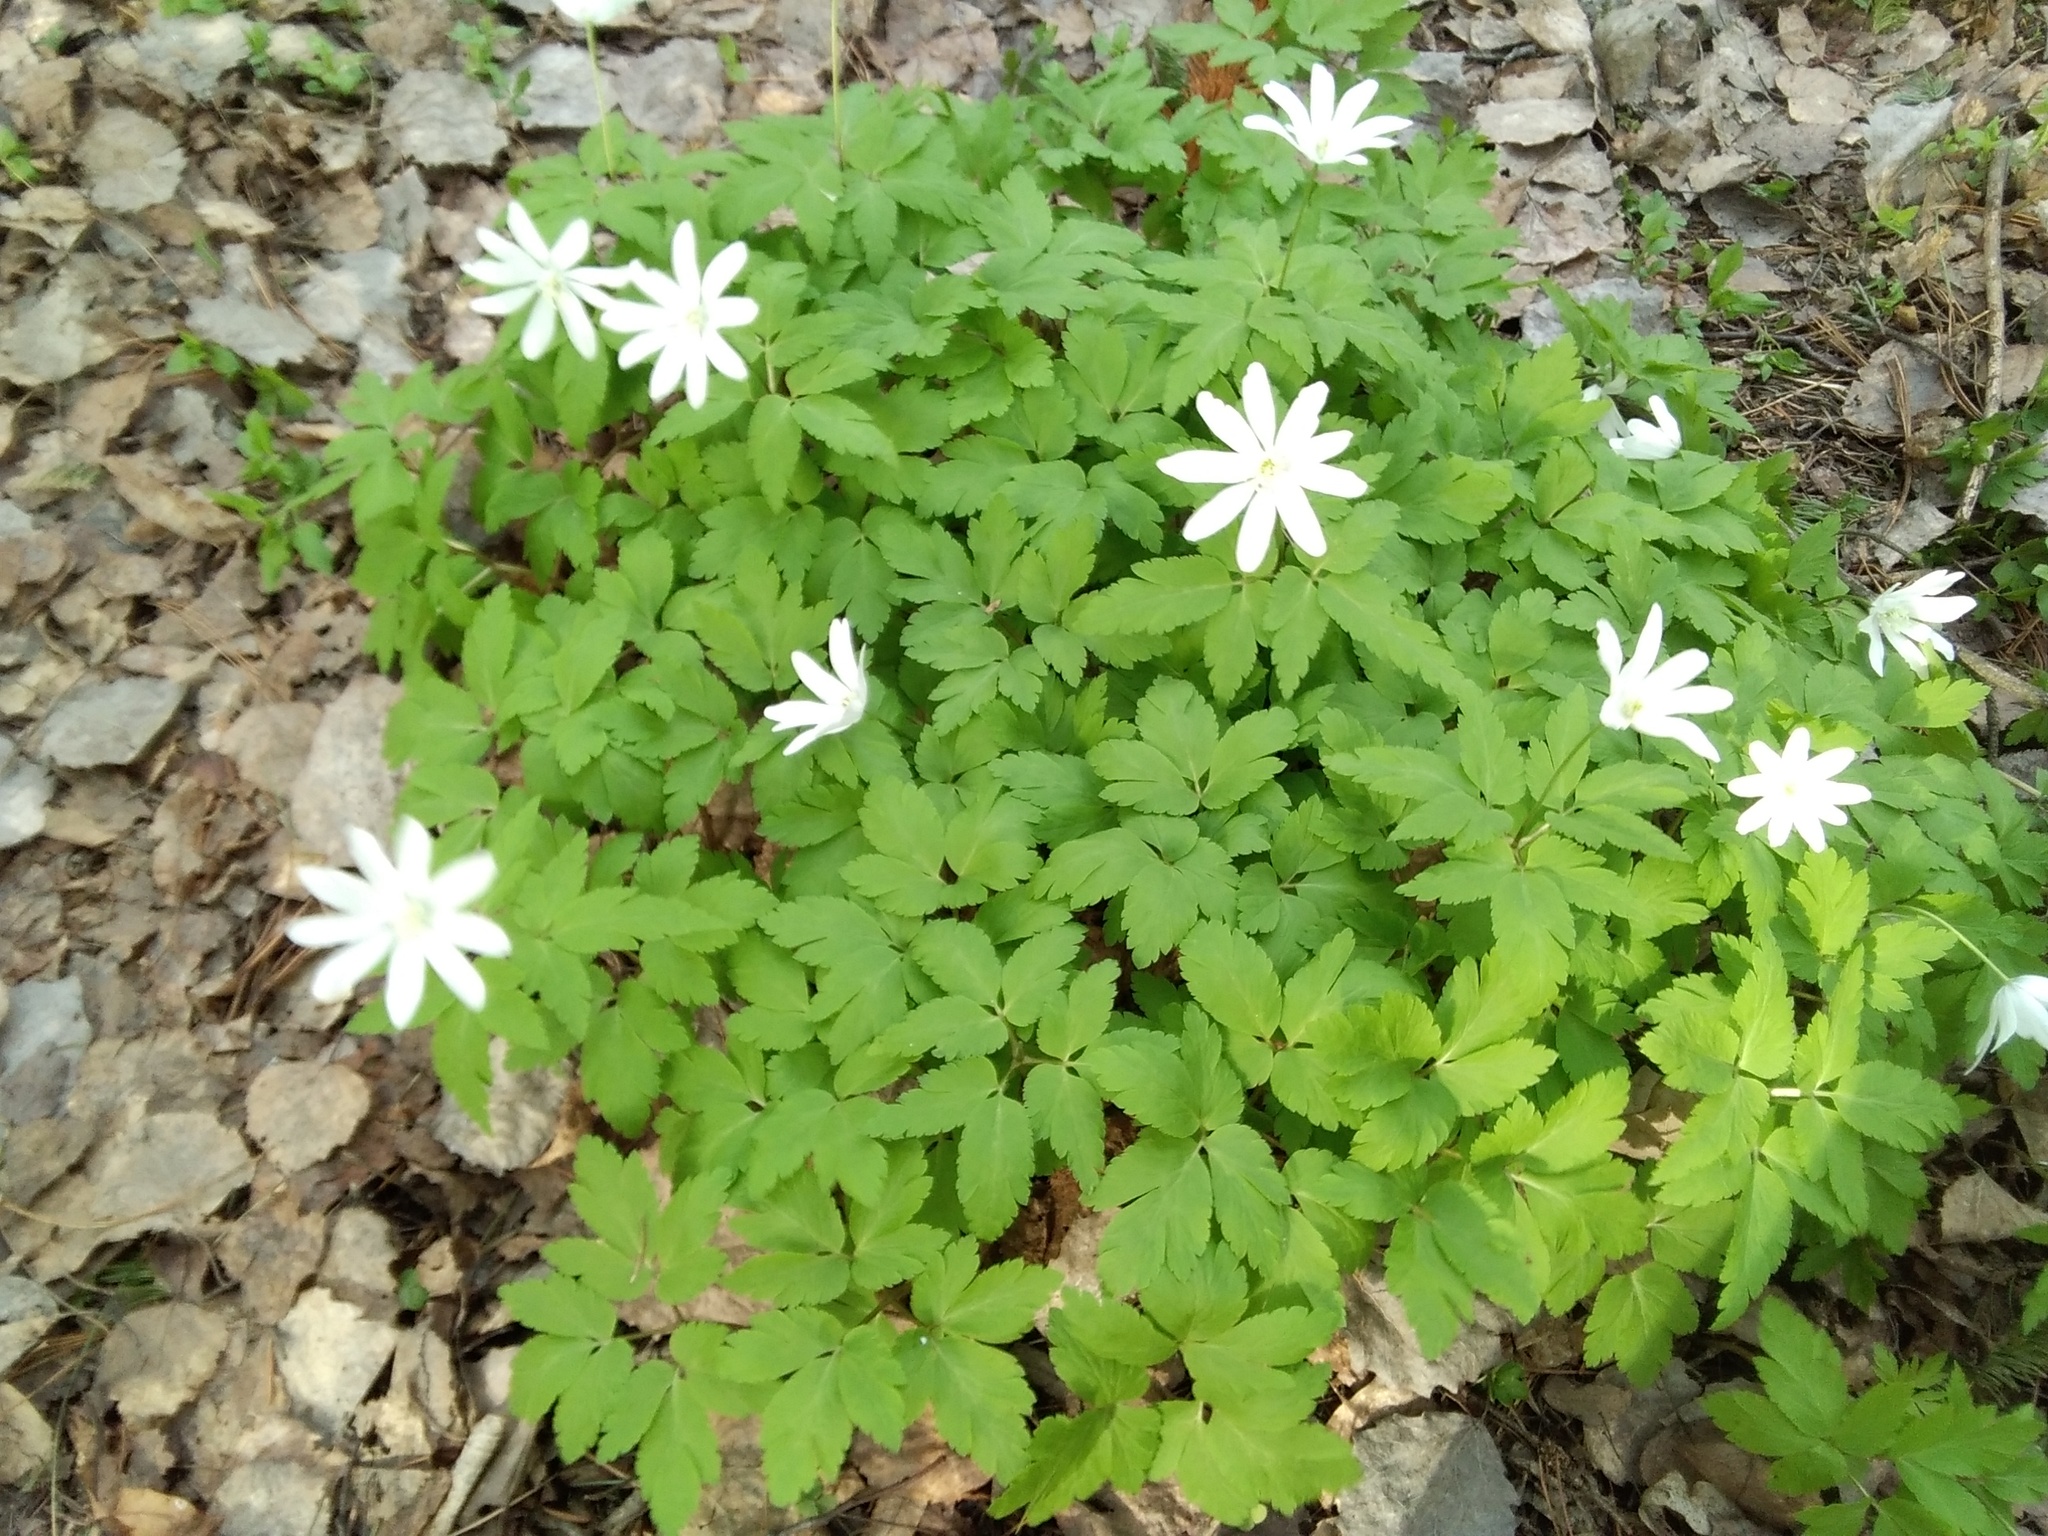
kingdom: Plantae
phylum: Tracheophyta
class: Magnoliopsida
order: Ranunculales
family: Ranunculaceae
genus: Anemone
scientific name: Anemone altaica
